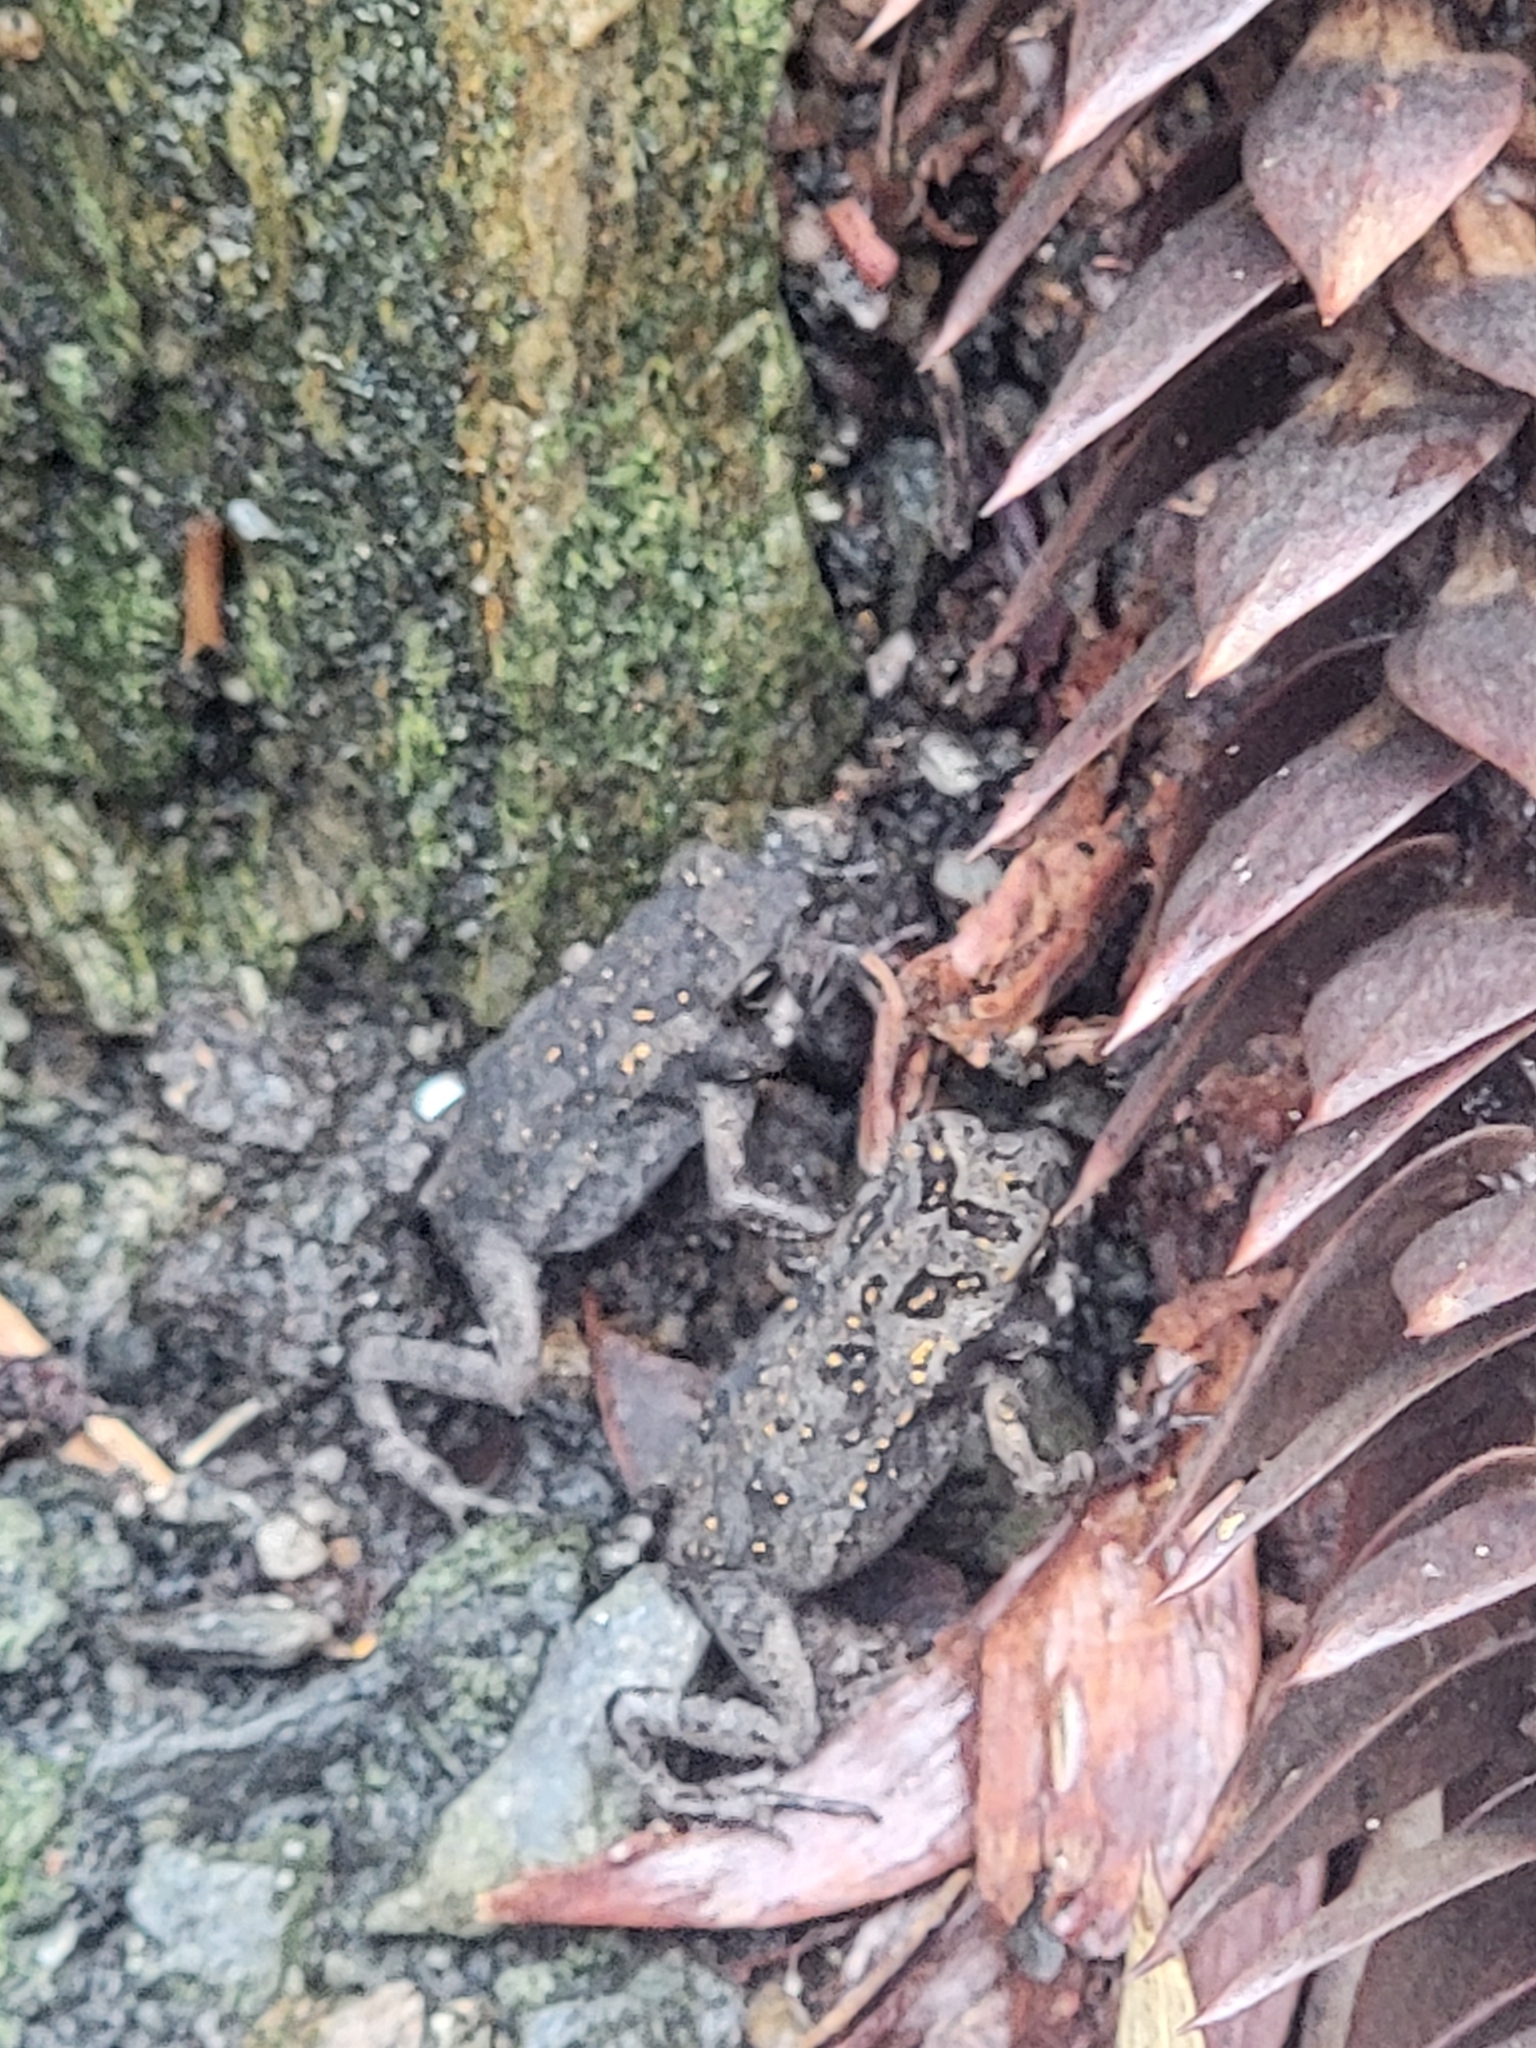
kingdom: Animalia
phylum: Chordata
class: Amphibia
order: Anura
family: Bufonidae
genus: Rhinella
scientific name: Rhinella marina
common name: Cane toad
